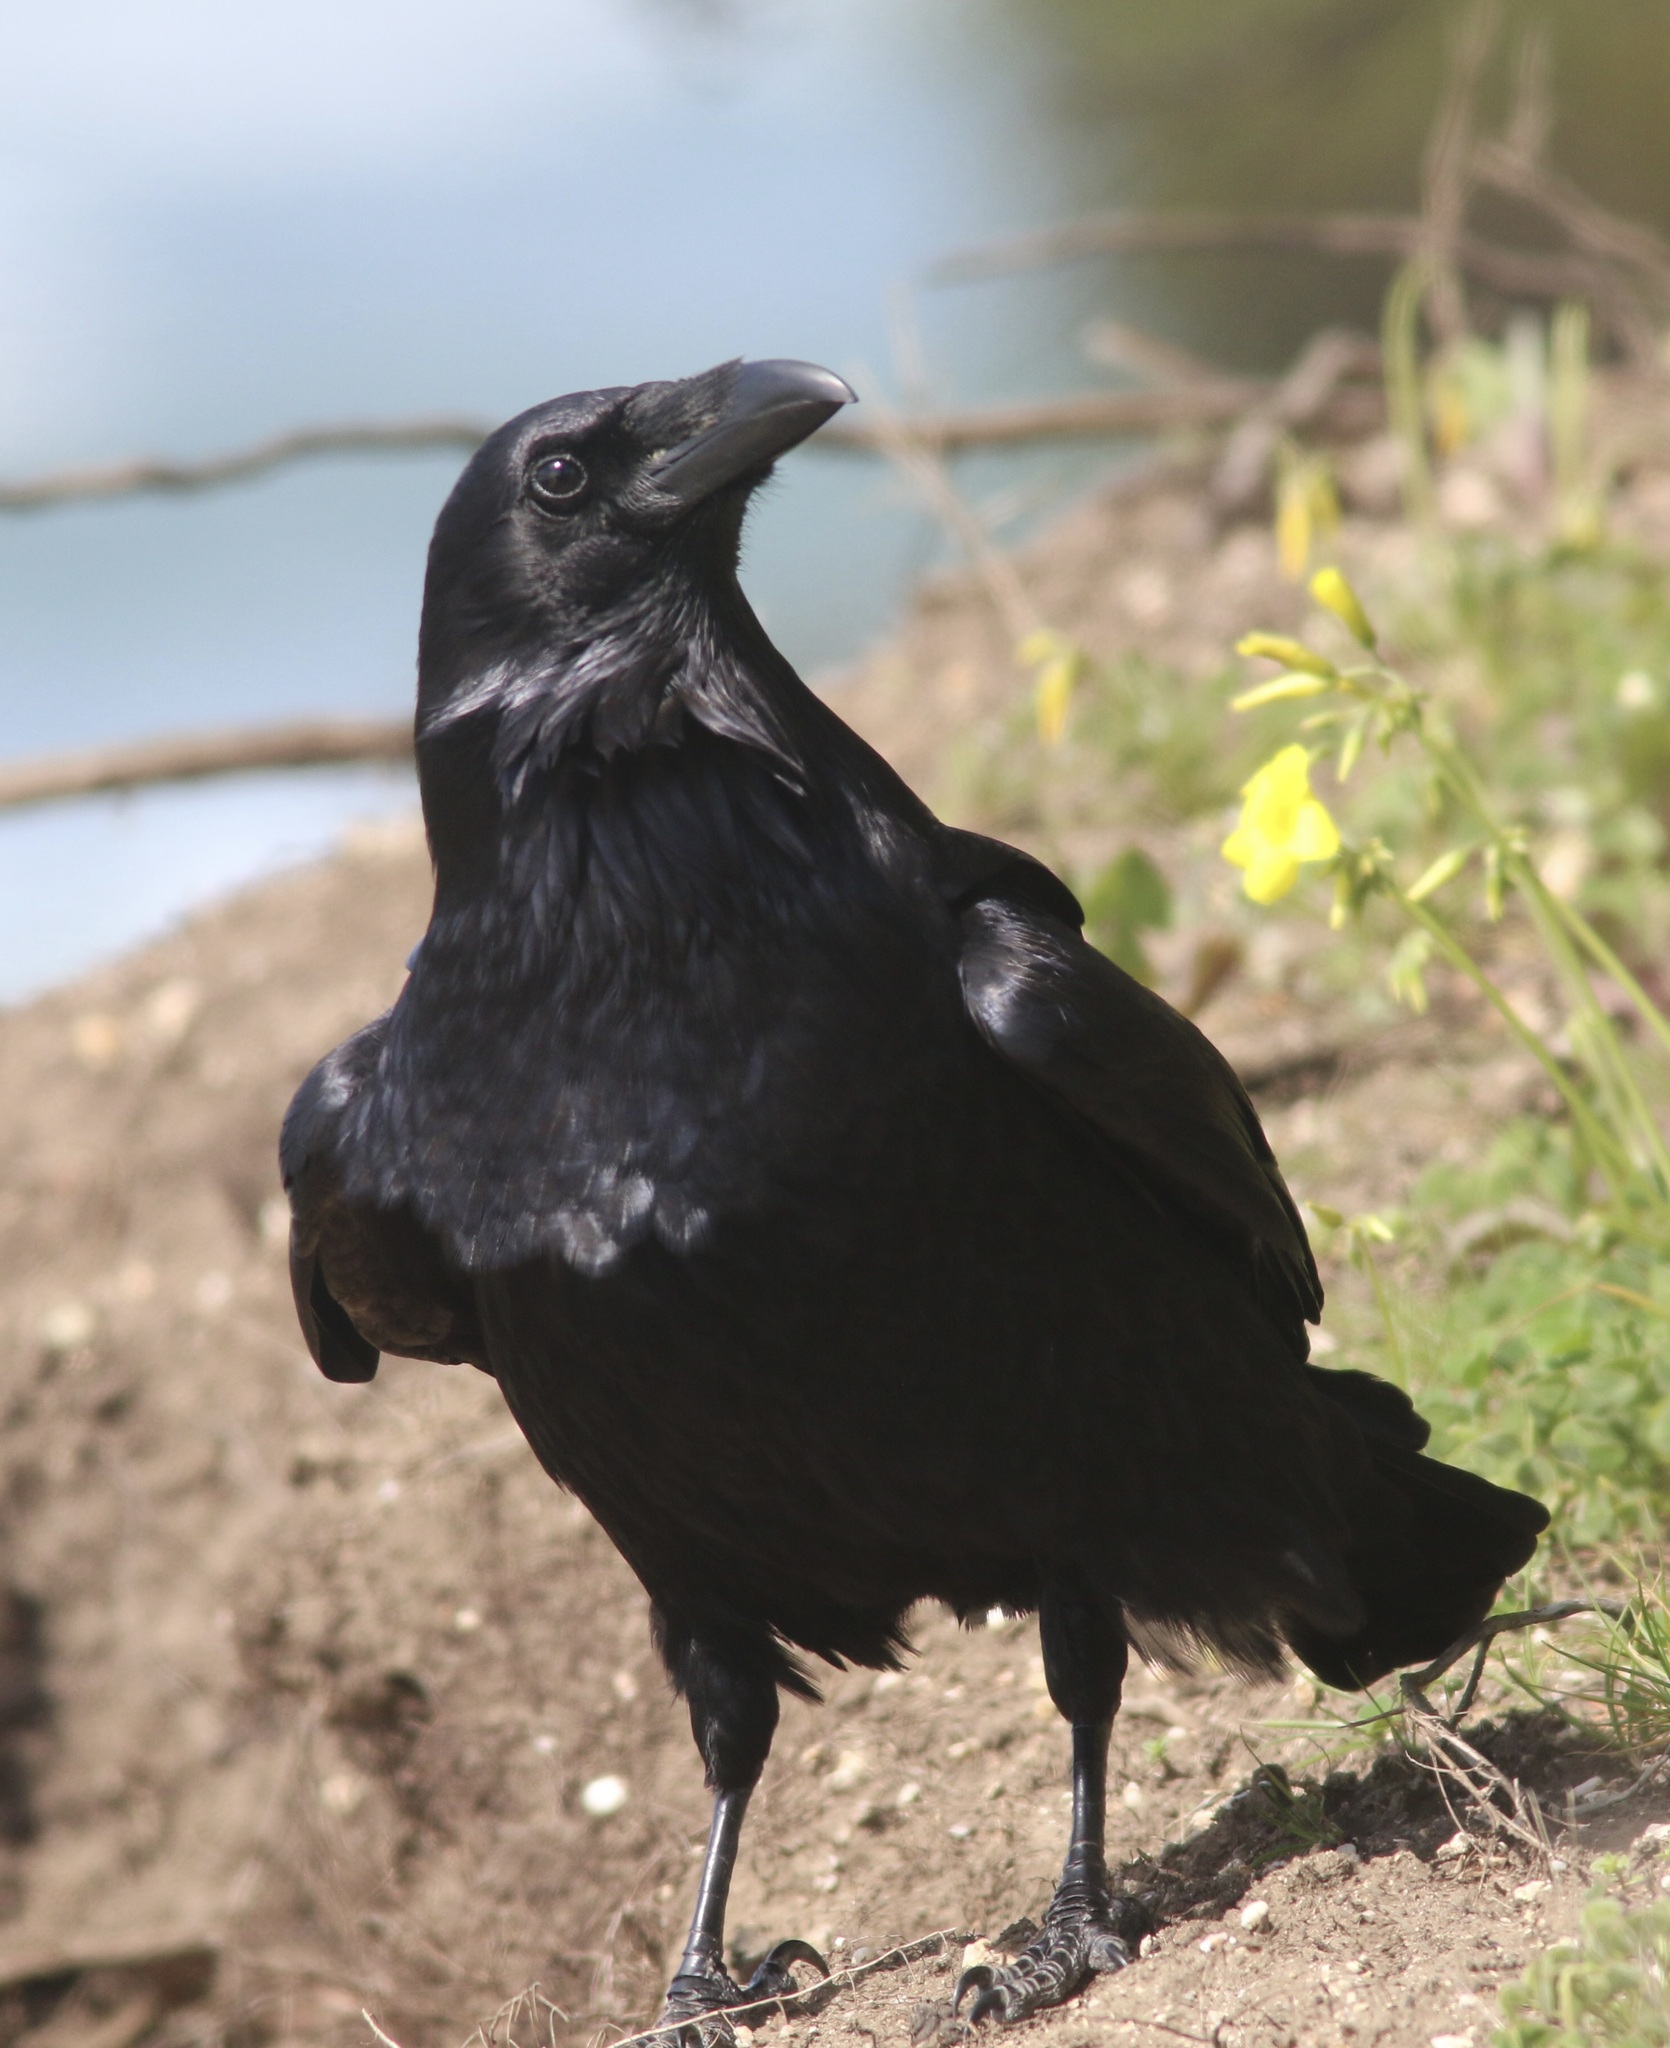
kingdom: Animalia
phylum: Chordata
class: Aves
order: Passeriformes
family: Corvidae
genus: Corvus
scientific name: Corvus corax
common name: Common raven
